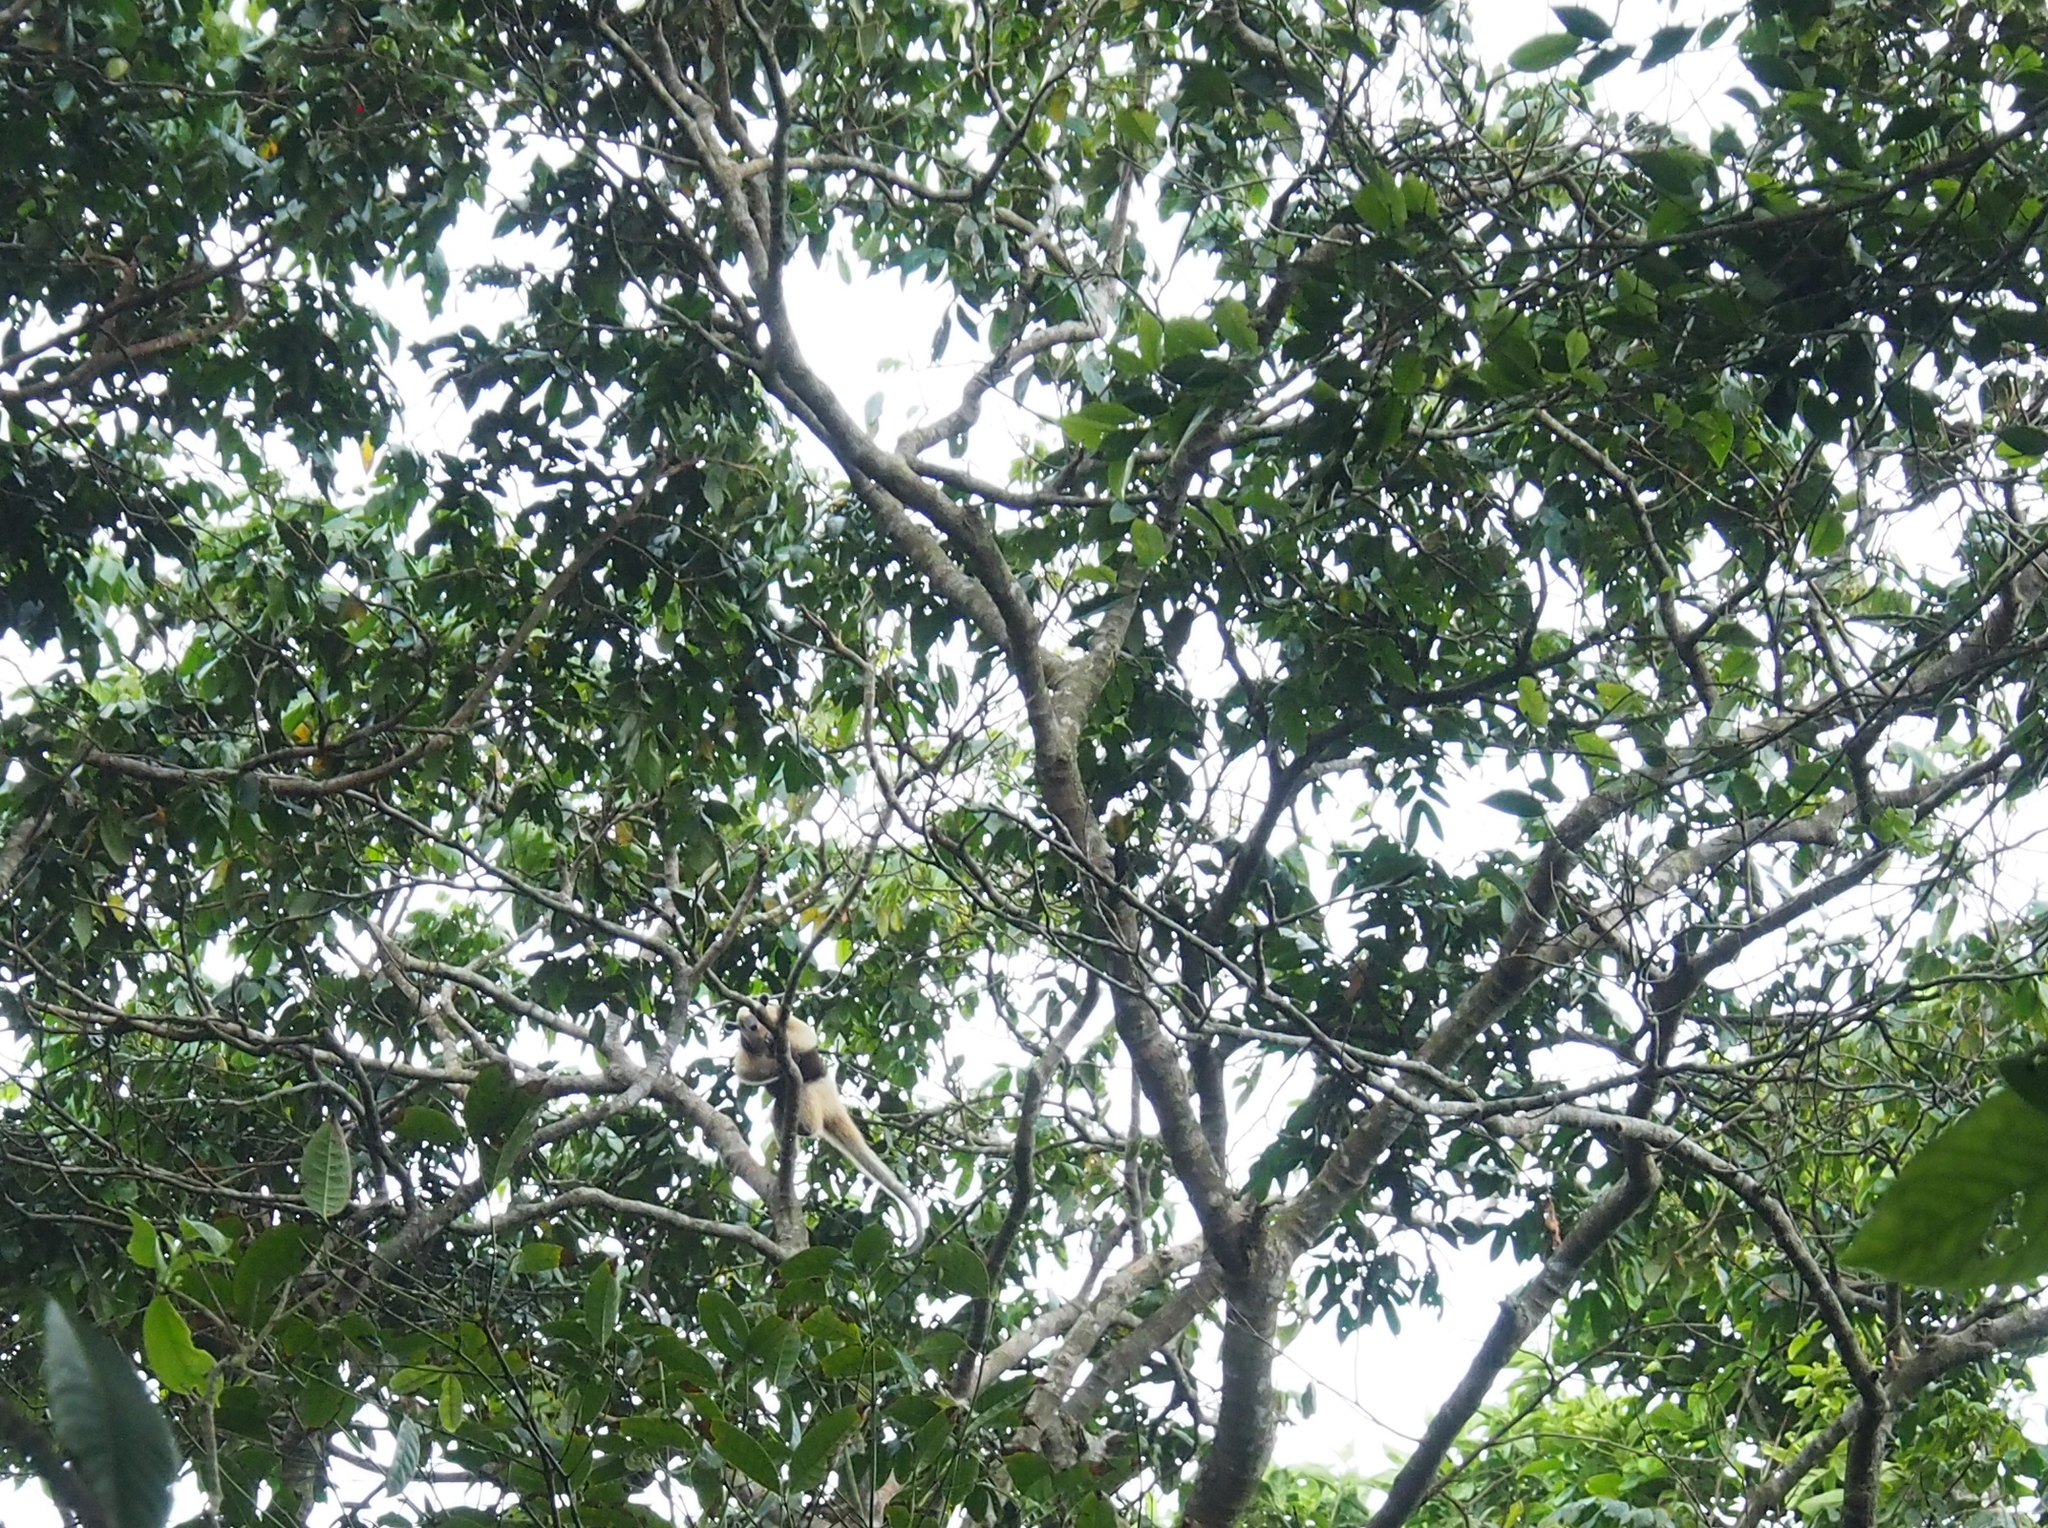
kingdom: Animalia
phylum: Chordata
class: Mammalia
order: Pilosa
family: Myrmecophagidae
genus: Tamandua
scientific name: Tamandua mexicana
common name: Northern tamandua
